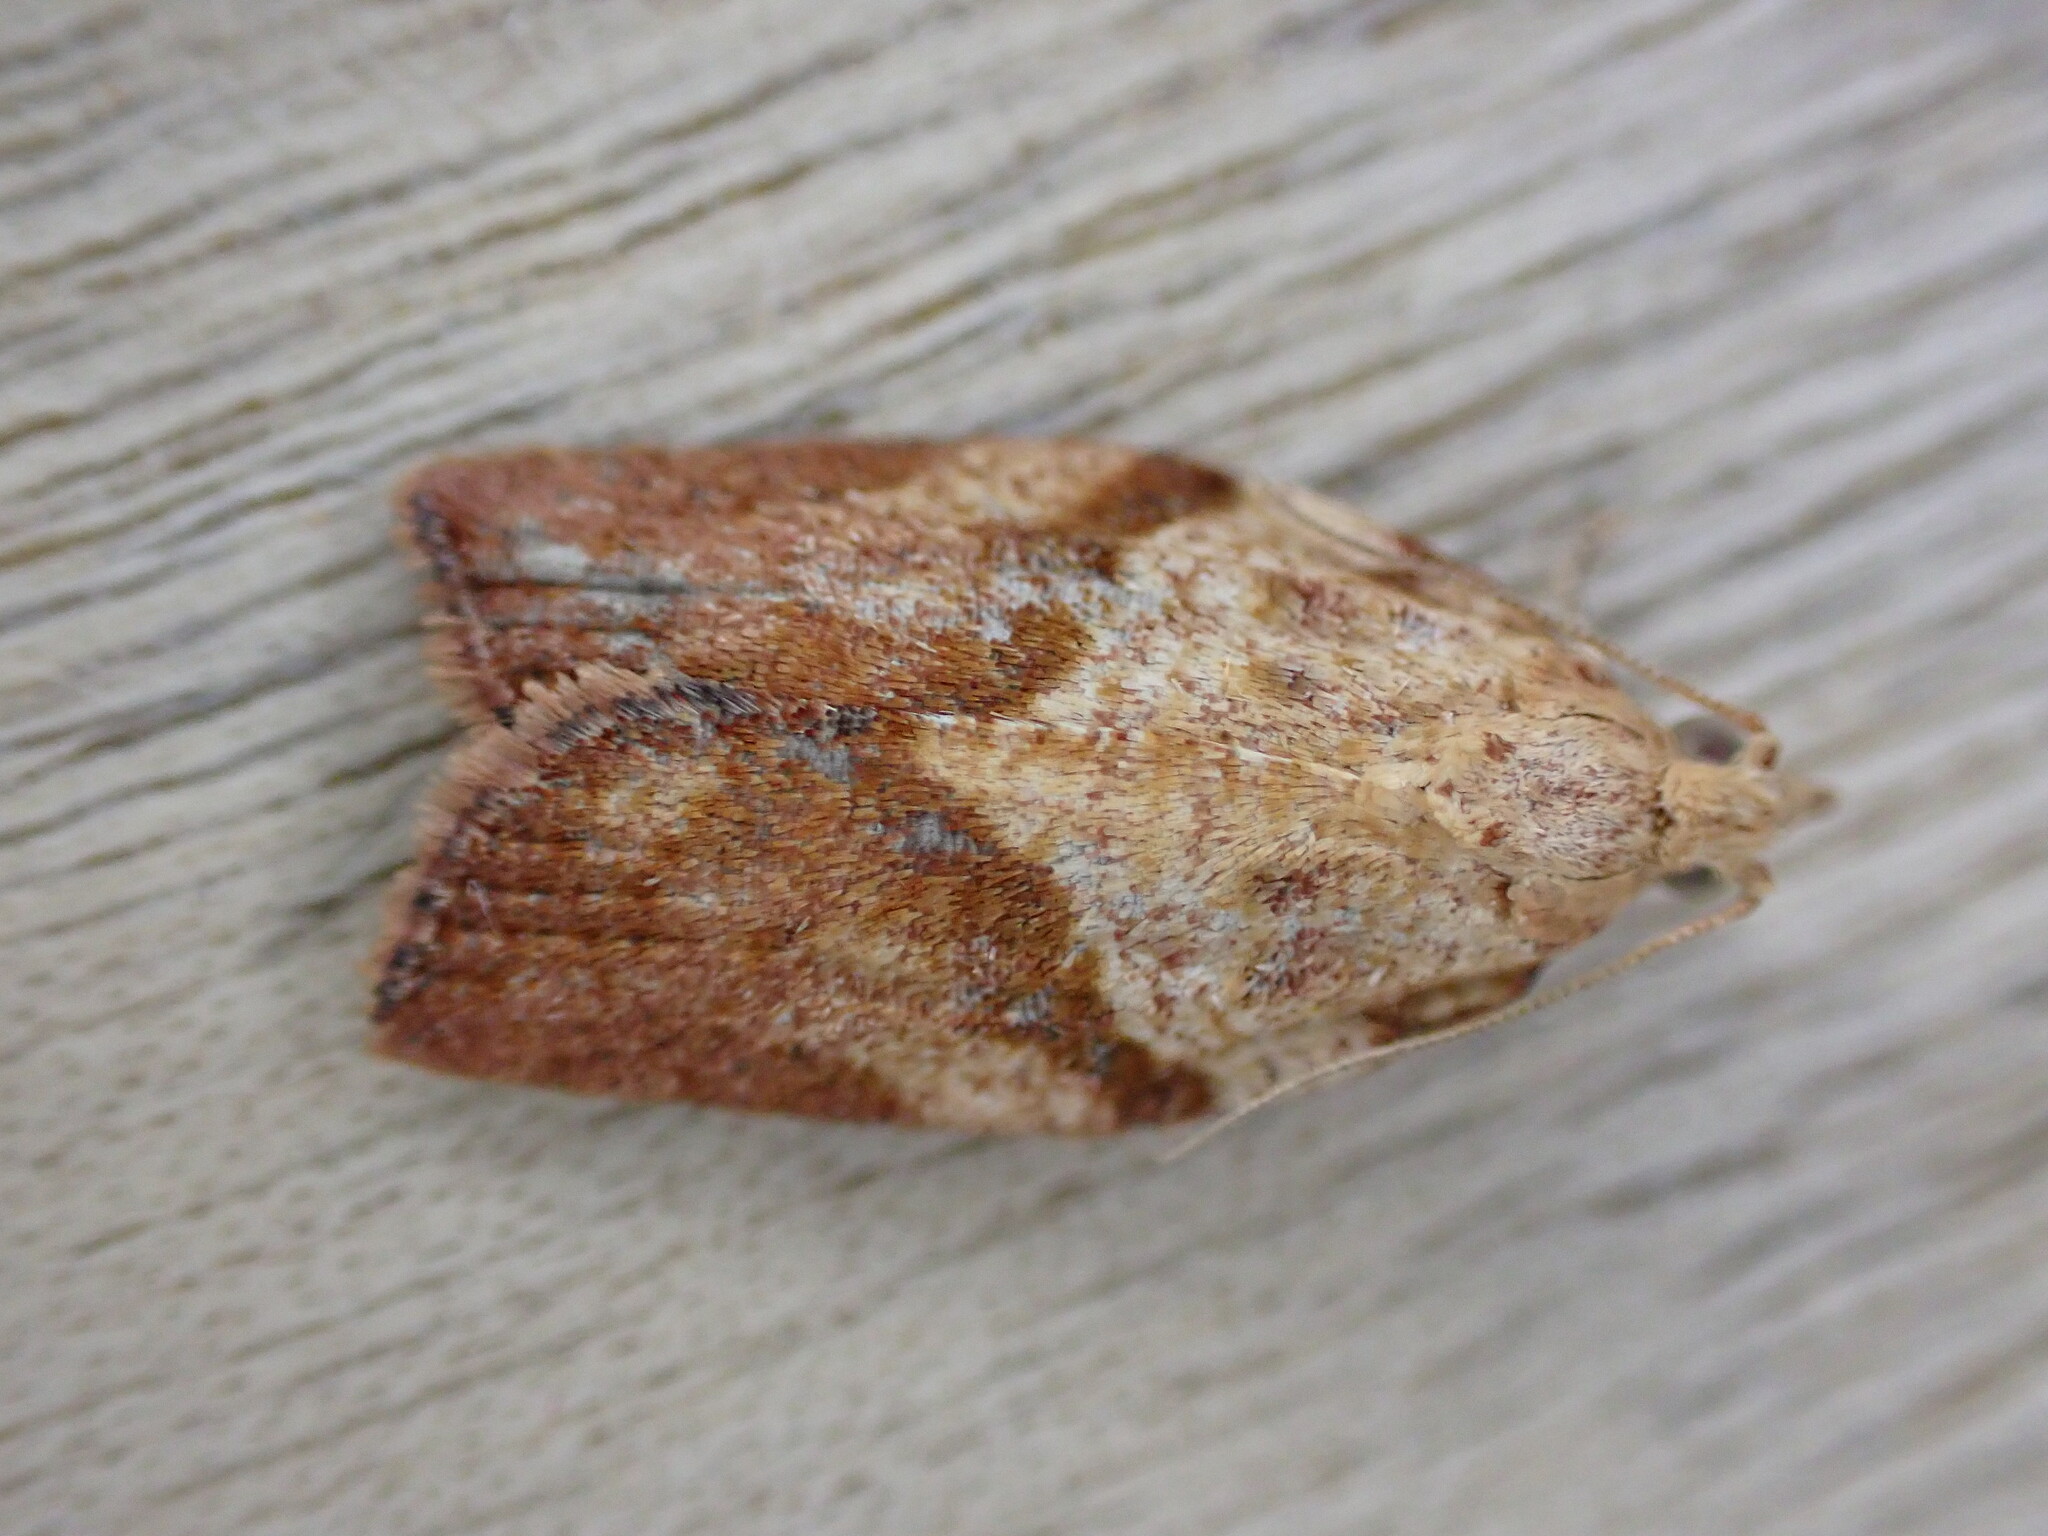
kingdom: Animalia
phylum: Arthropoda
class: Insecta
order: Lepidoptera
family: Tortricidae
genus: Epiphyas
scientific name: Epiphyas postvittana
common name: Light brown apple moth
